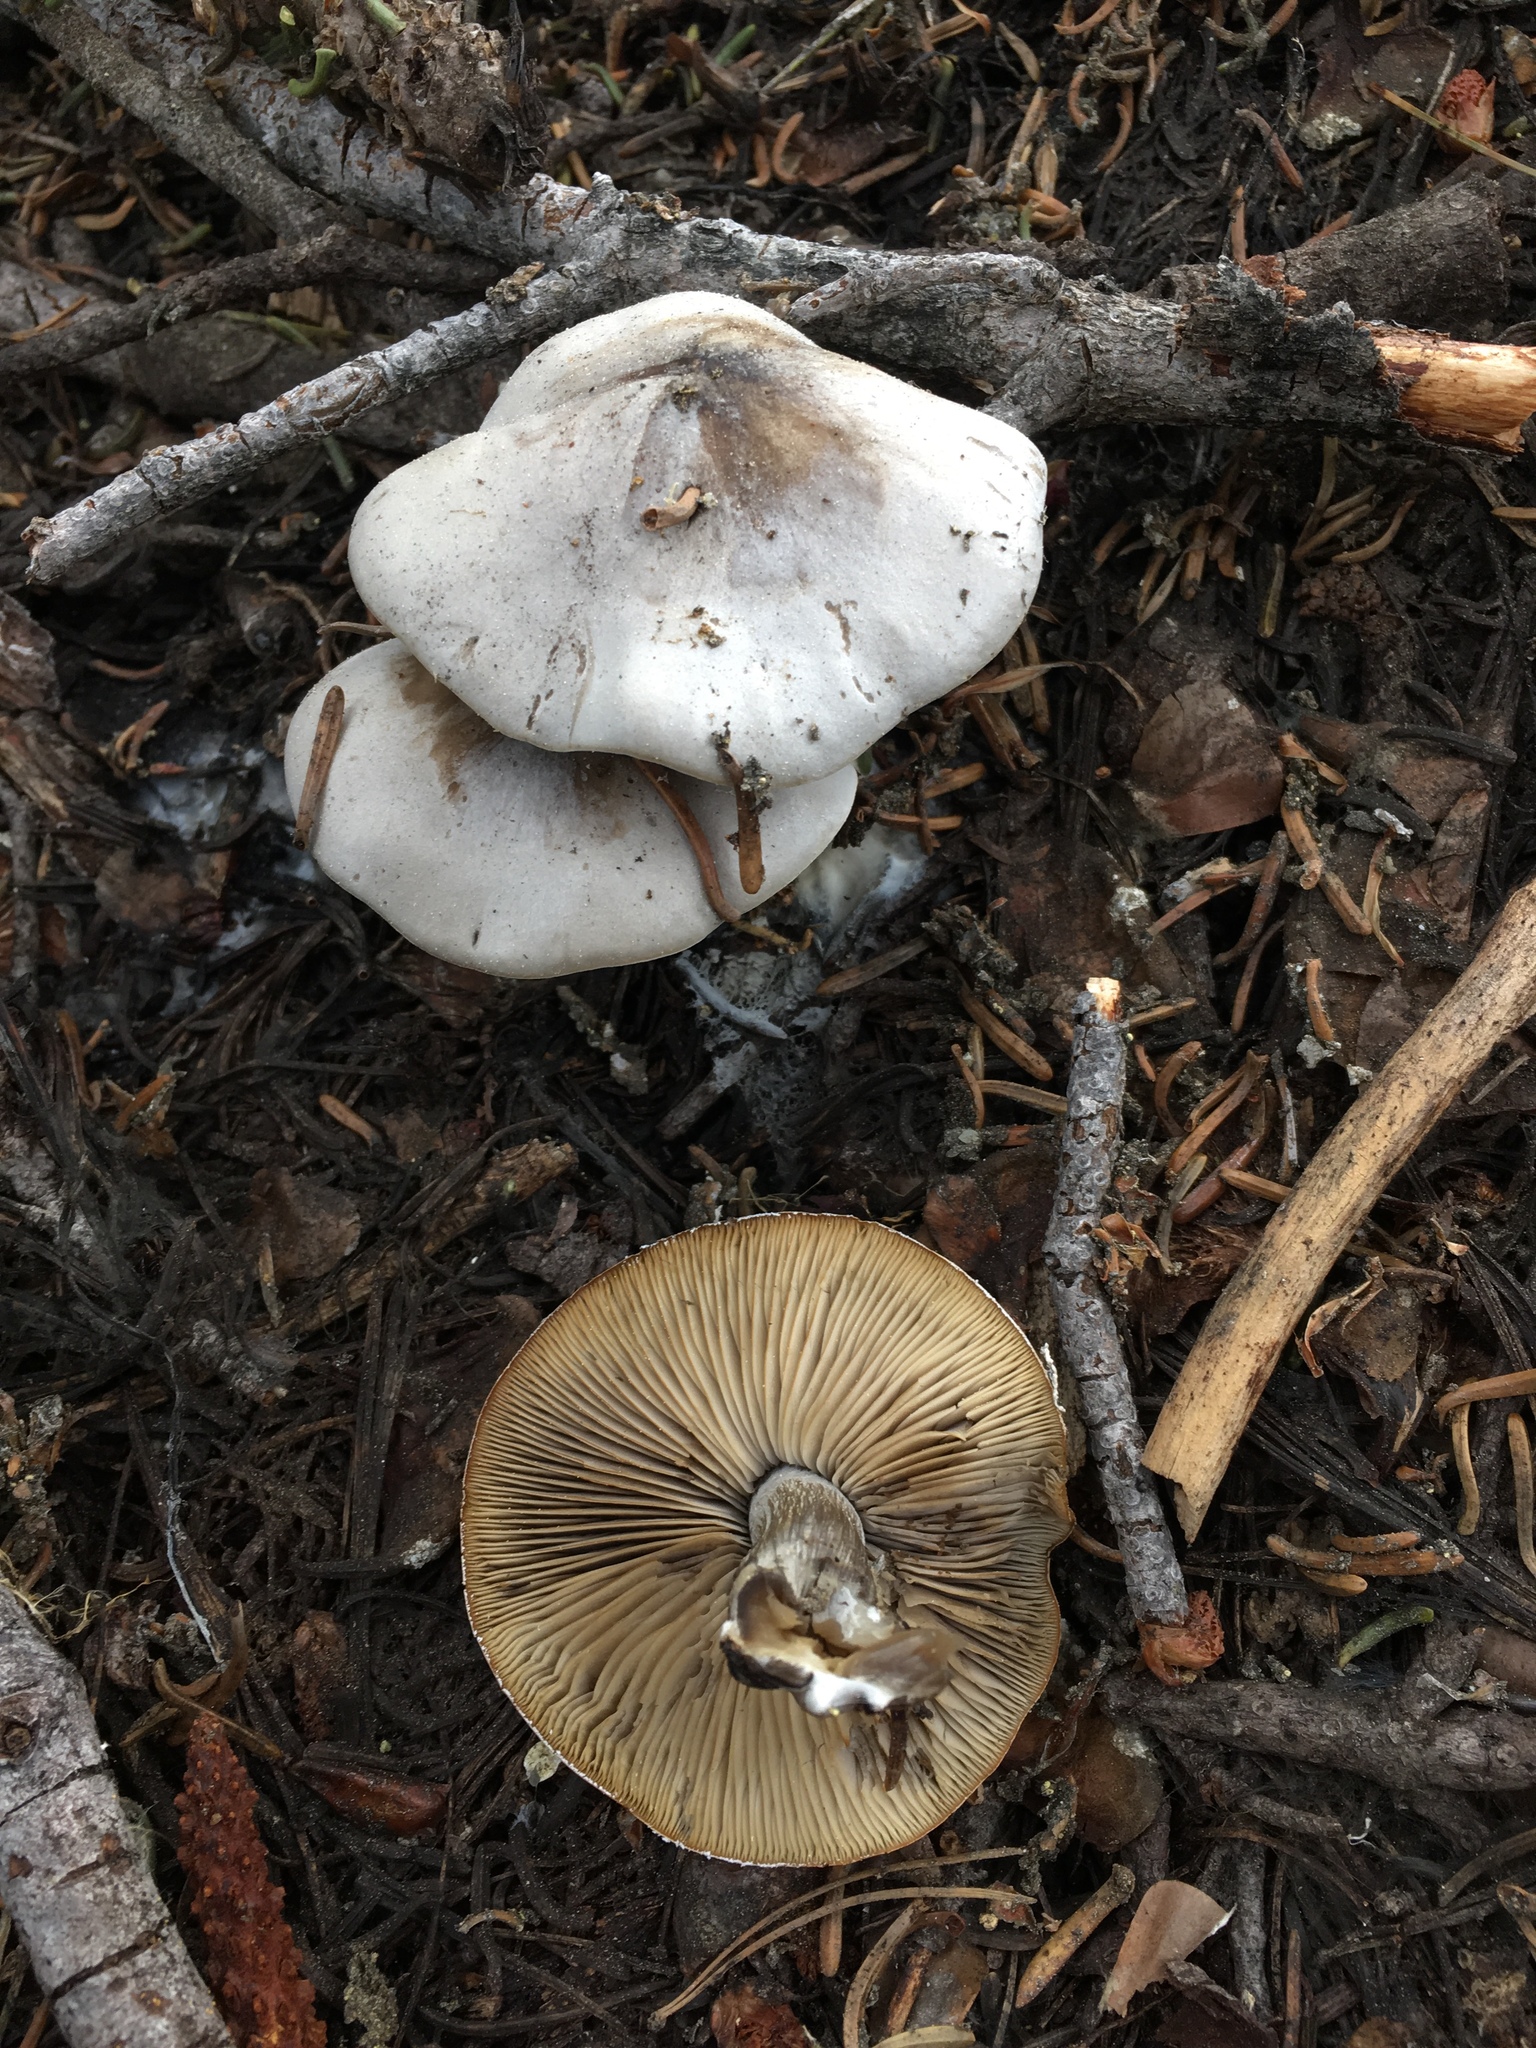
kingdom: Fungi
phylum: Basidiomycota
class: Agaricomycetes
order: Agaricales
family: Tricholomataceae
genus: Clitocybe
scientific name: Clitocybe glacialis
